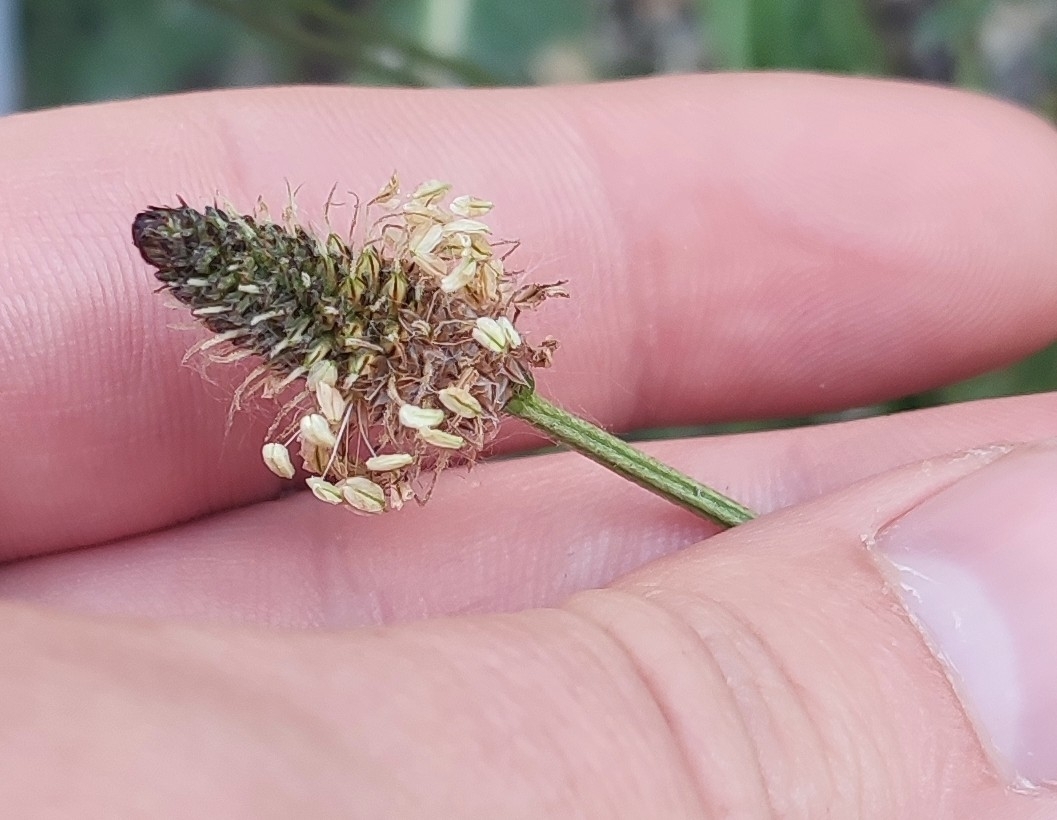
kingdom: Plantae
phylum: Tracheophyta
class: Magnoliopsida
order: Lamiales
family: Plantaginaceae
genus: Plantago
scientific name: Plantago lanceolata
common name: Ribwort plantain
